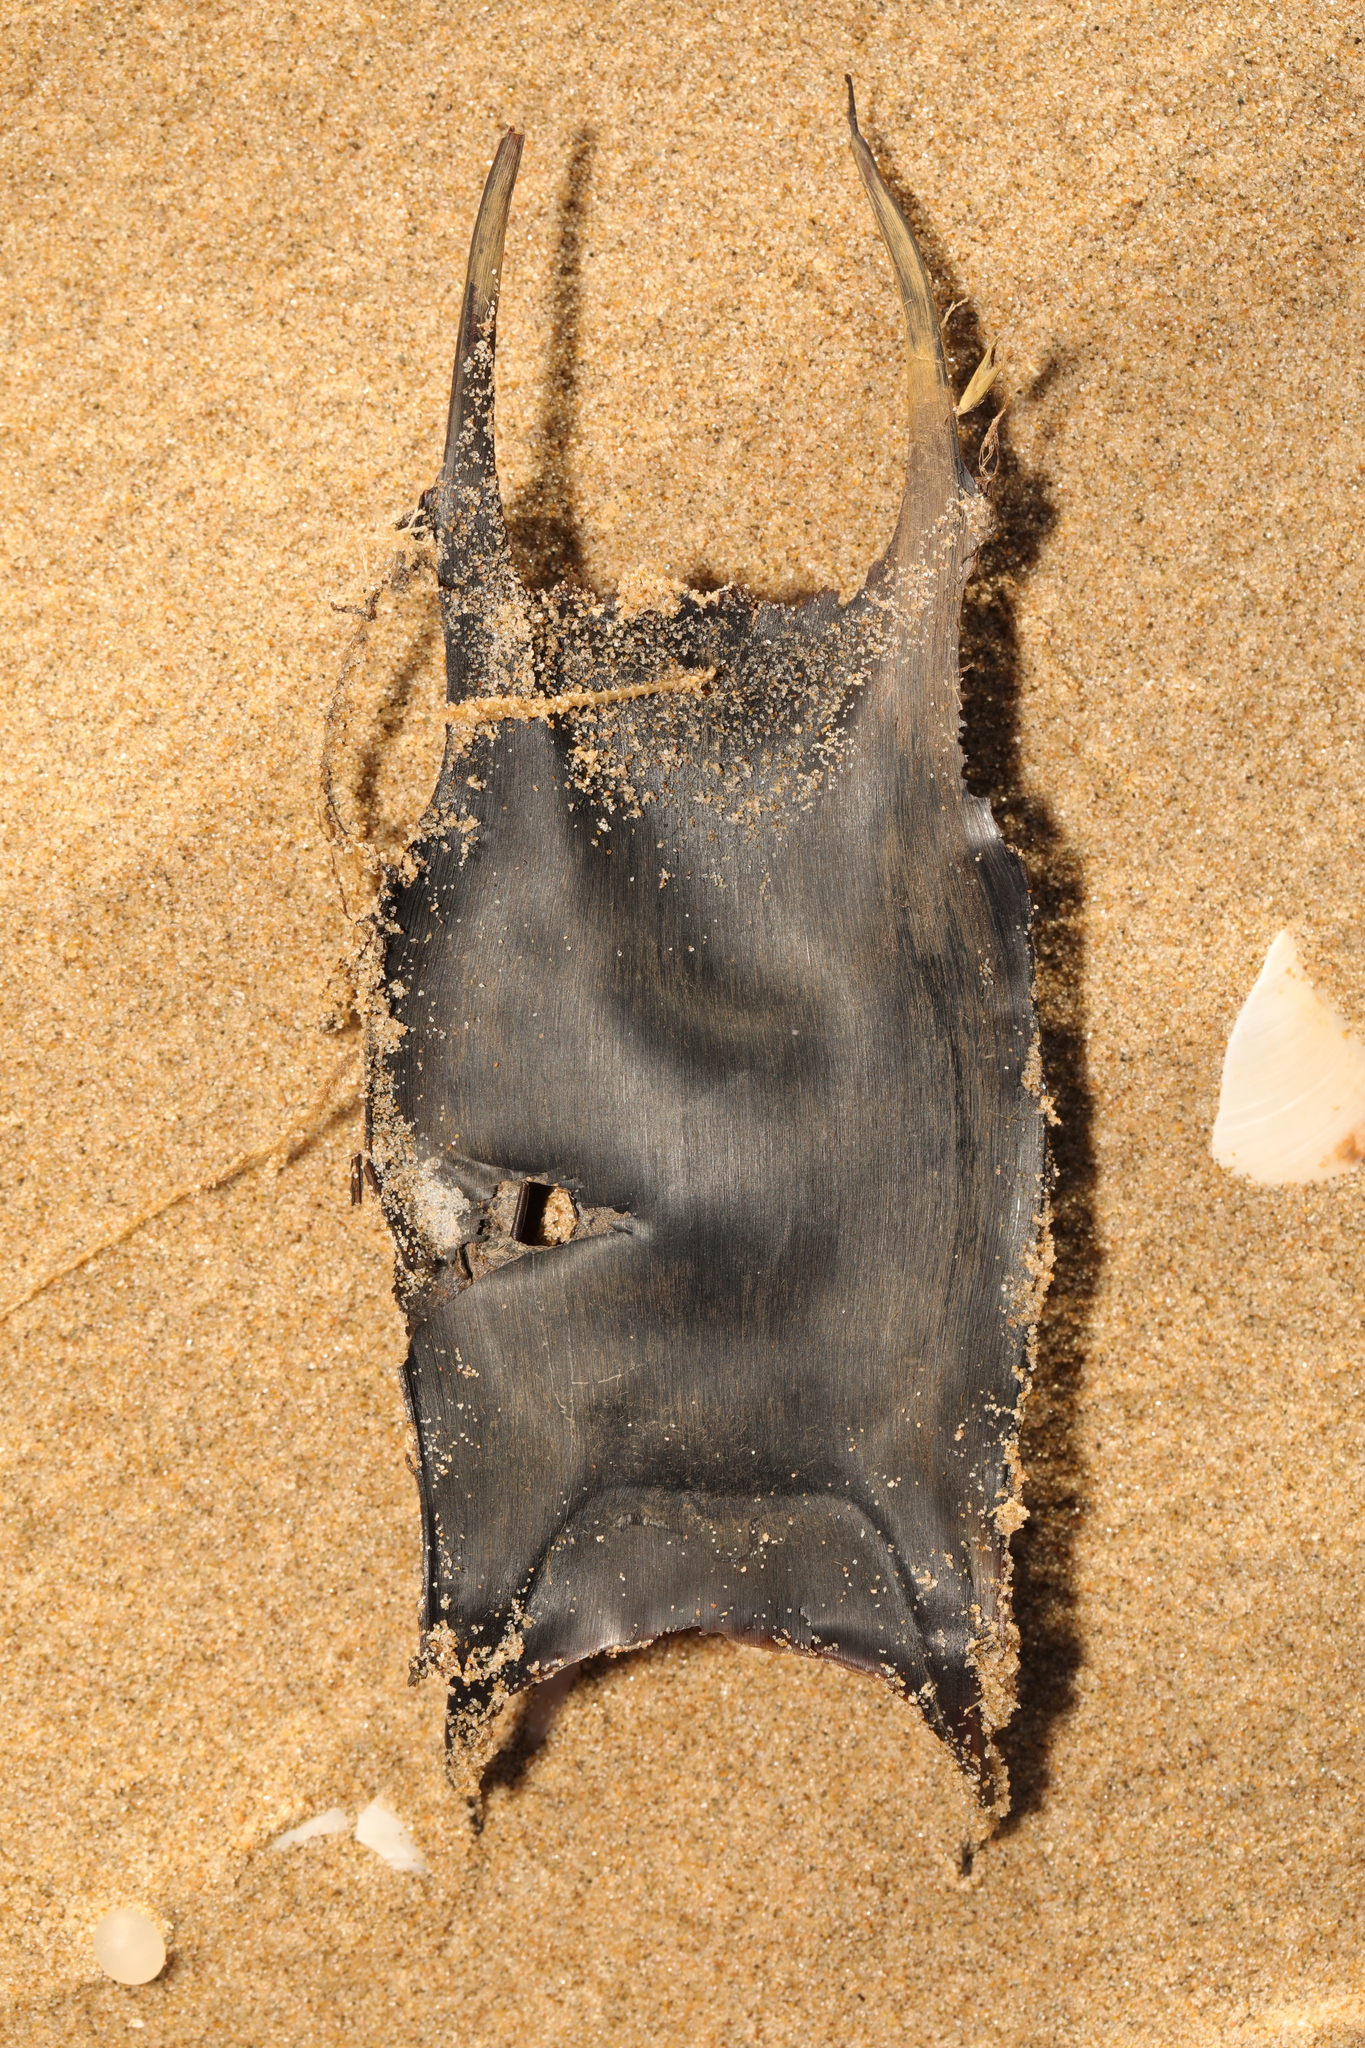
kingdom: Animalia
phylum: Chordata
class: Elasmobranchii
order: Rajiformes
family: Rajidae
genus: Raja
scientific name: Raja clavata
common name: Thornback ray
